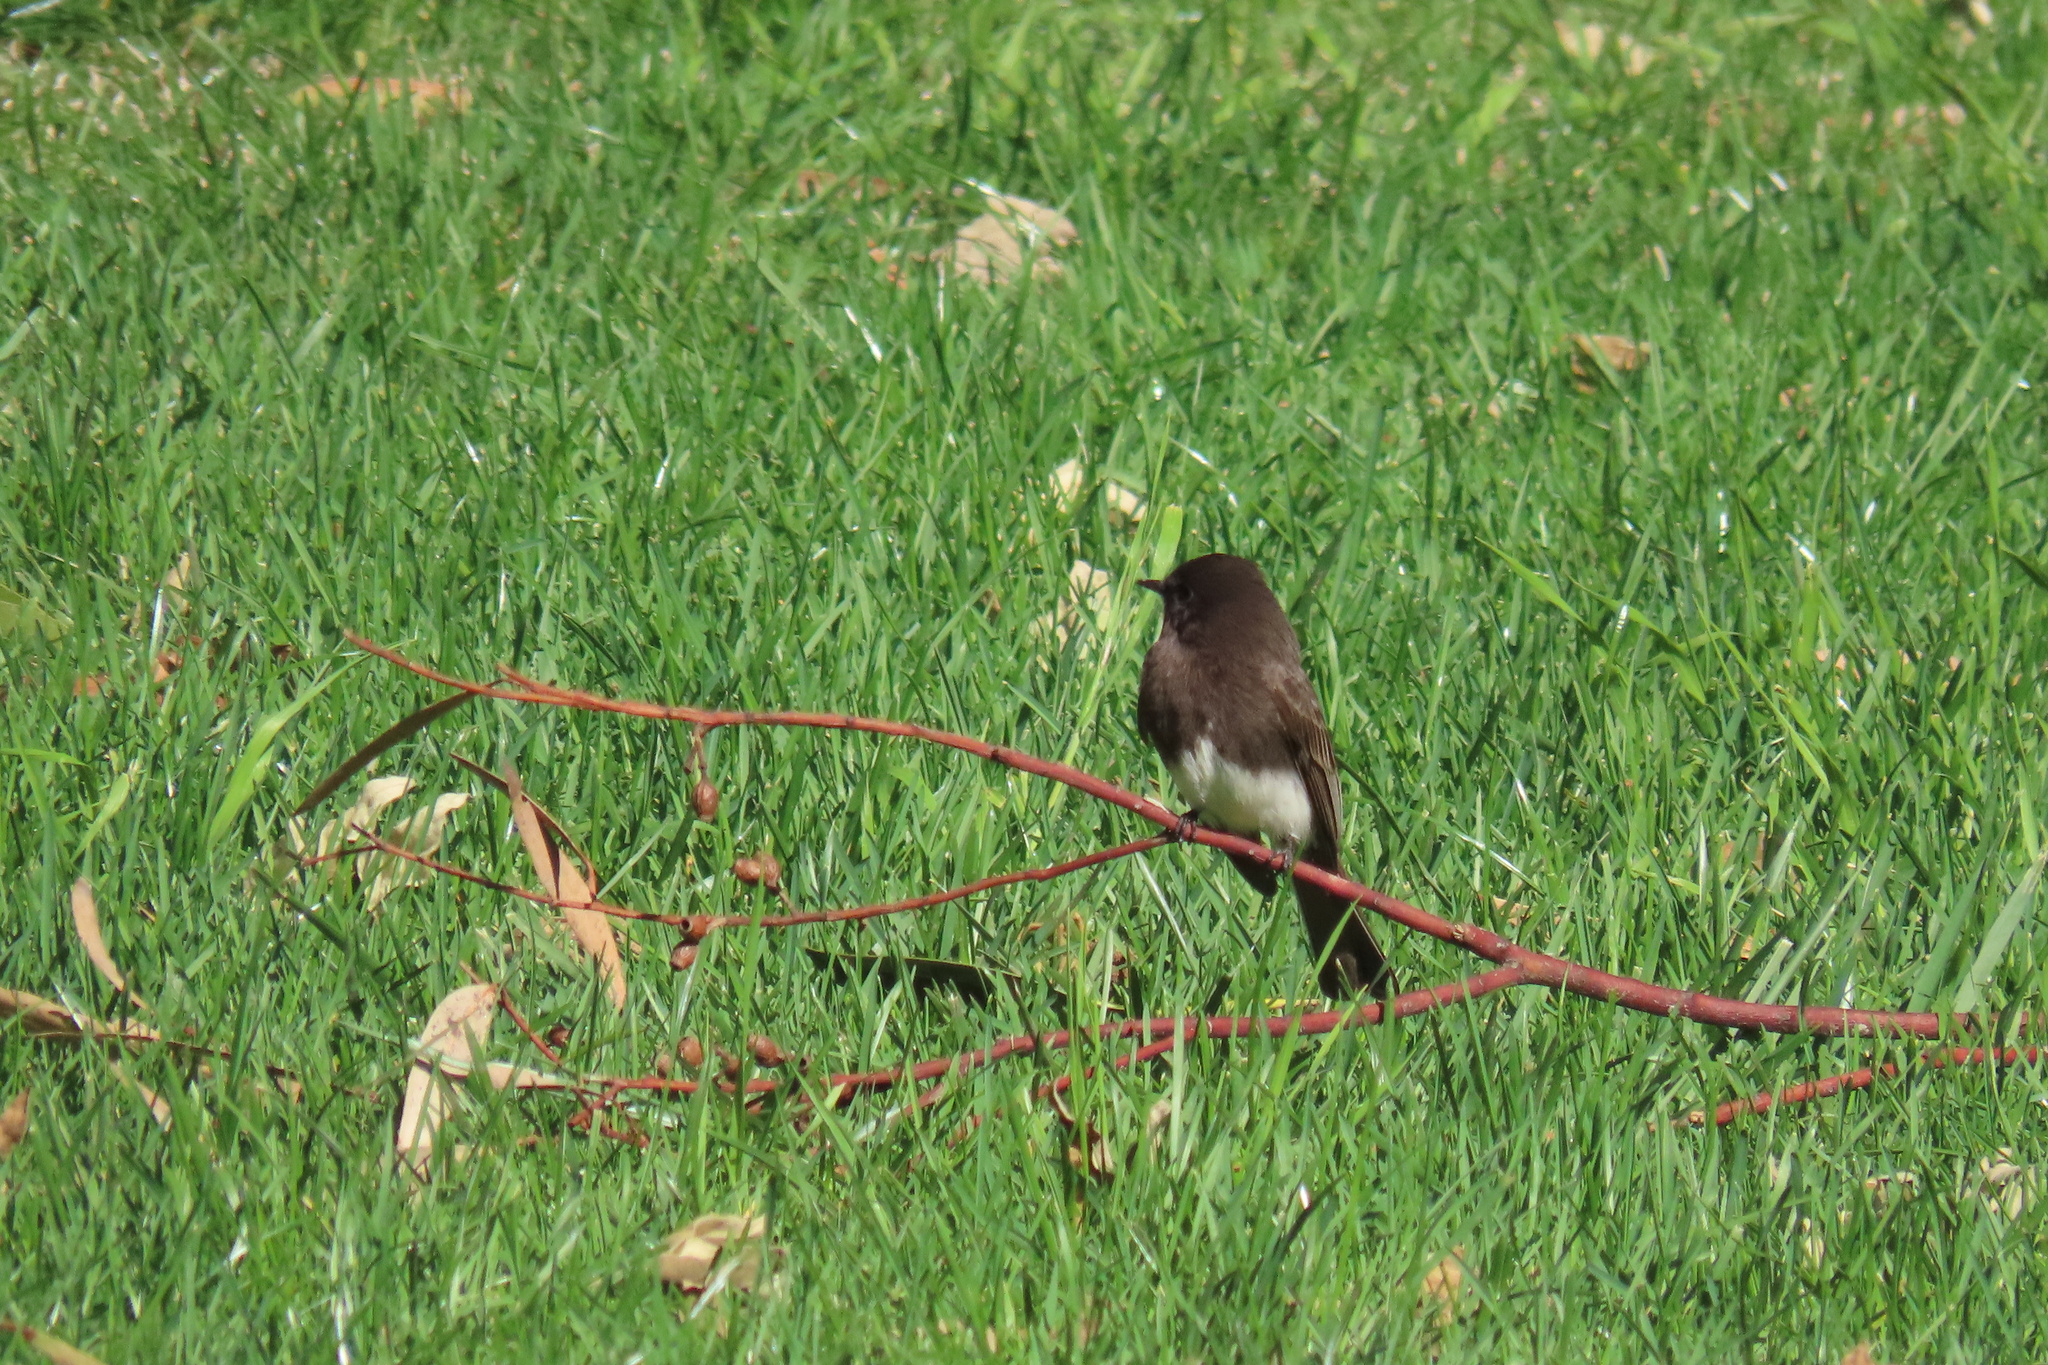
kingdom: Animalia
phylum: Chordata
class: Aves
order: Passeriformes
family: Tyrannidae
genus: Sayornis
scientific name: Sayornis nigricans
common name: Black phoebe
